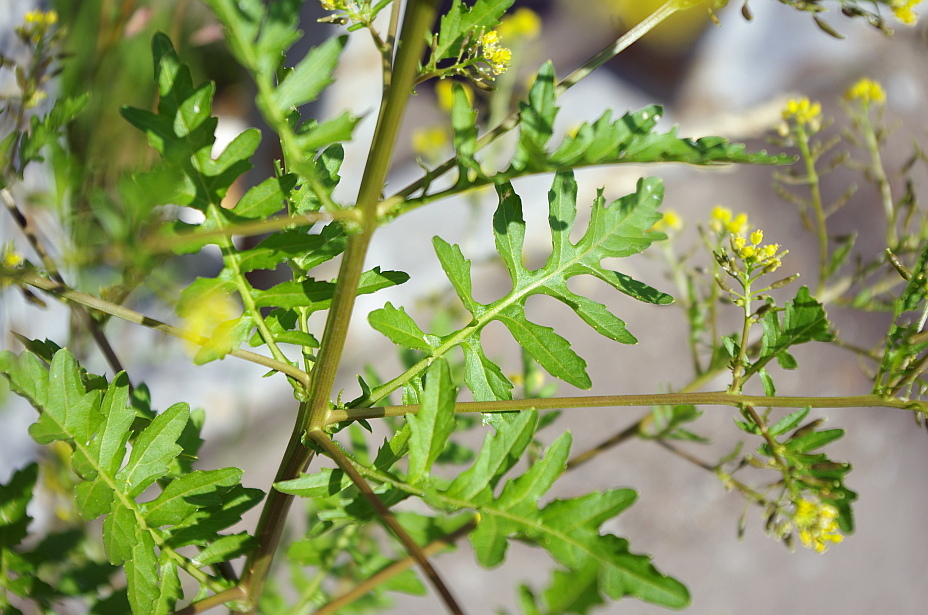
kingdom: Plantae
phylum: Tracheophyta
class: Magnoliopsida
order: Brassicales
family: Brassicaceae
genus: Rorippa
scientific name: Rorippa palustris
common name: Marsh yellow-cress
